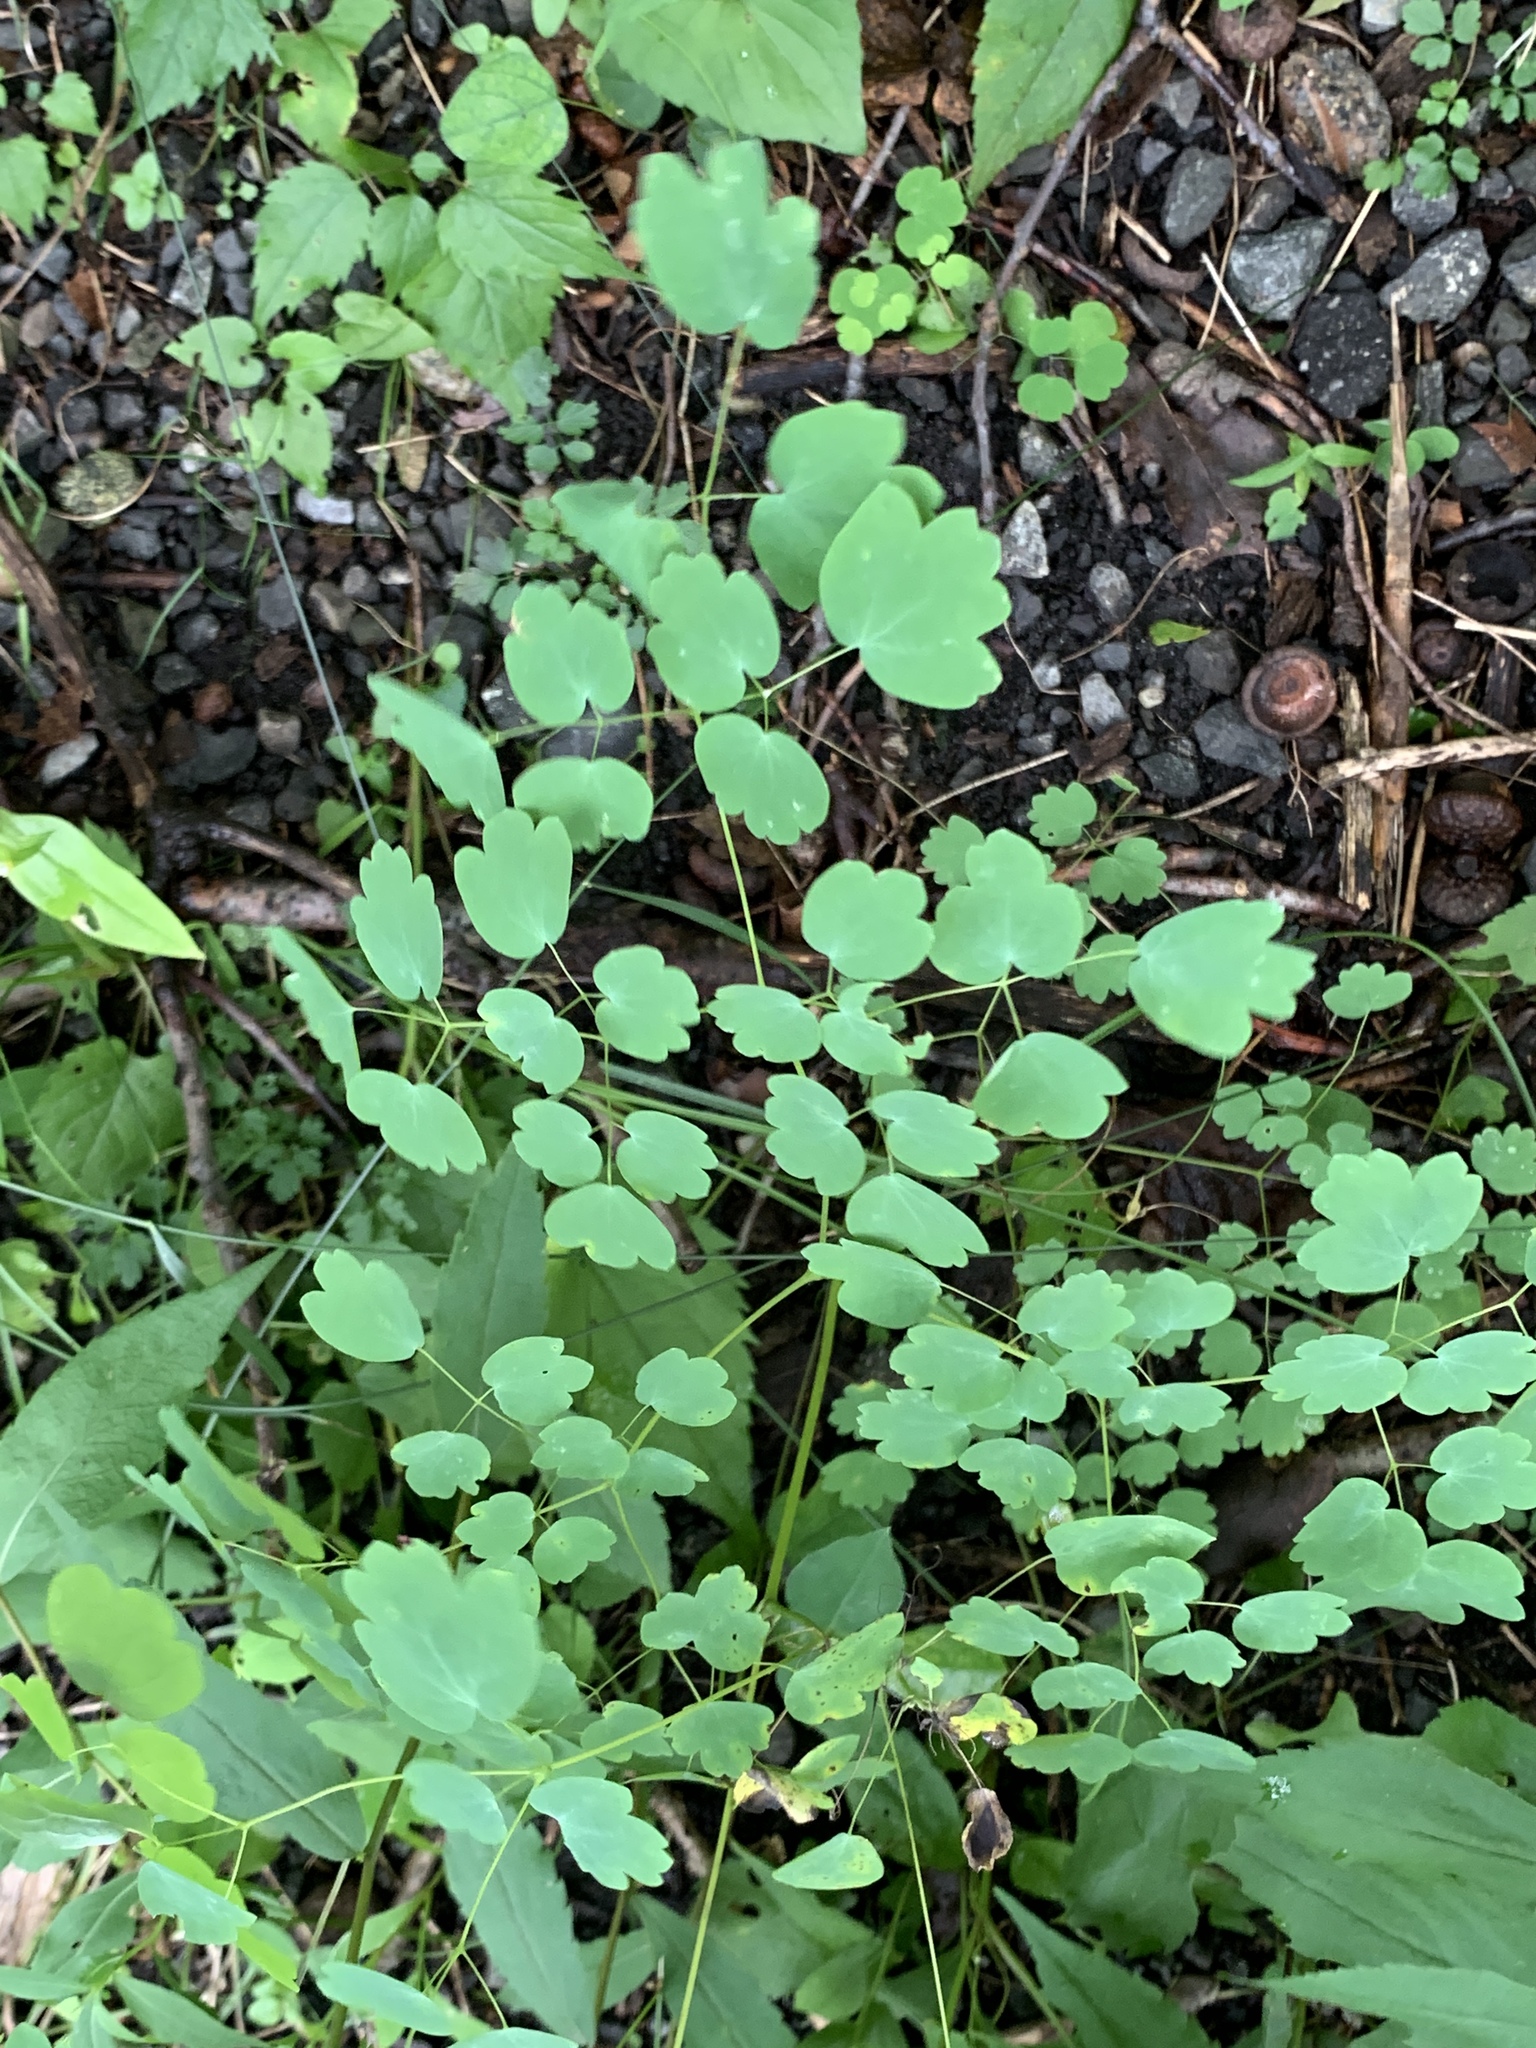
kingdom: Plantae
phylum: Tracheophyta
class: Magnoliopsida
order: Ranunculales
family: Ranunculaceae
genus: Thalictrum
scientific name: Thalictrum dioicum
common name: Early meadow-rue
